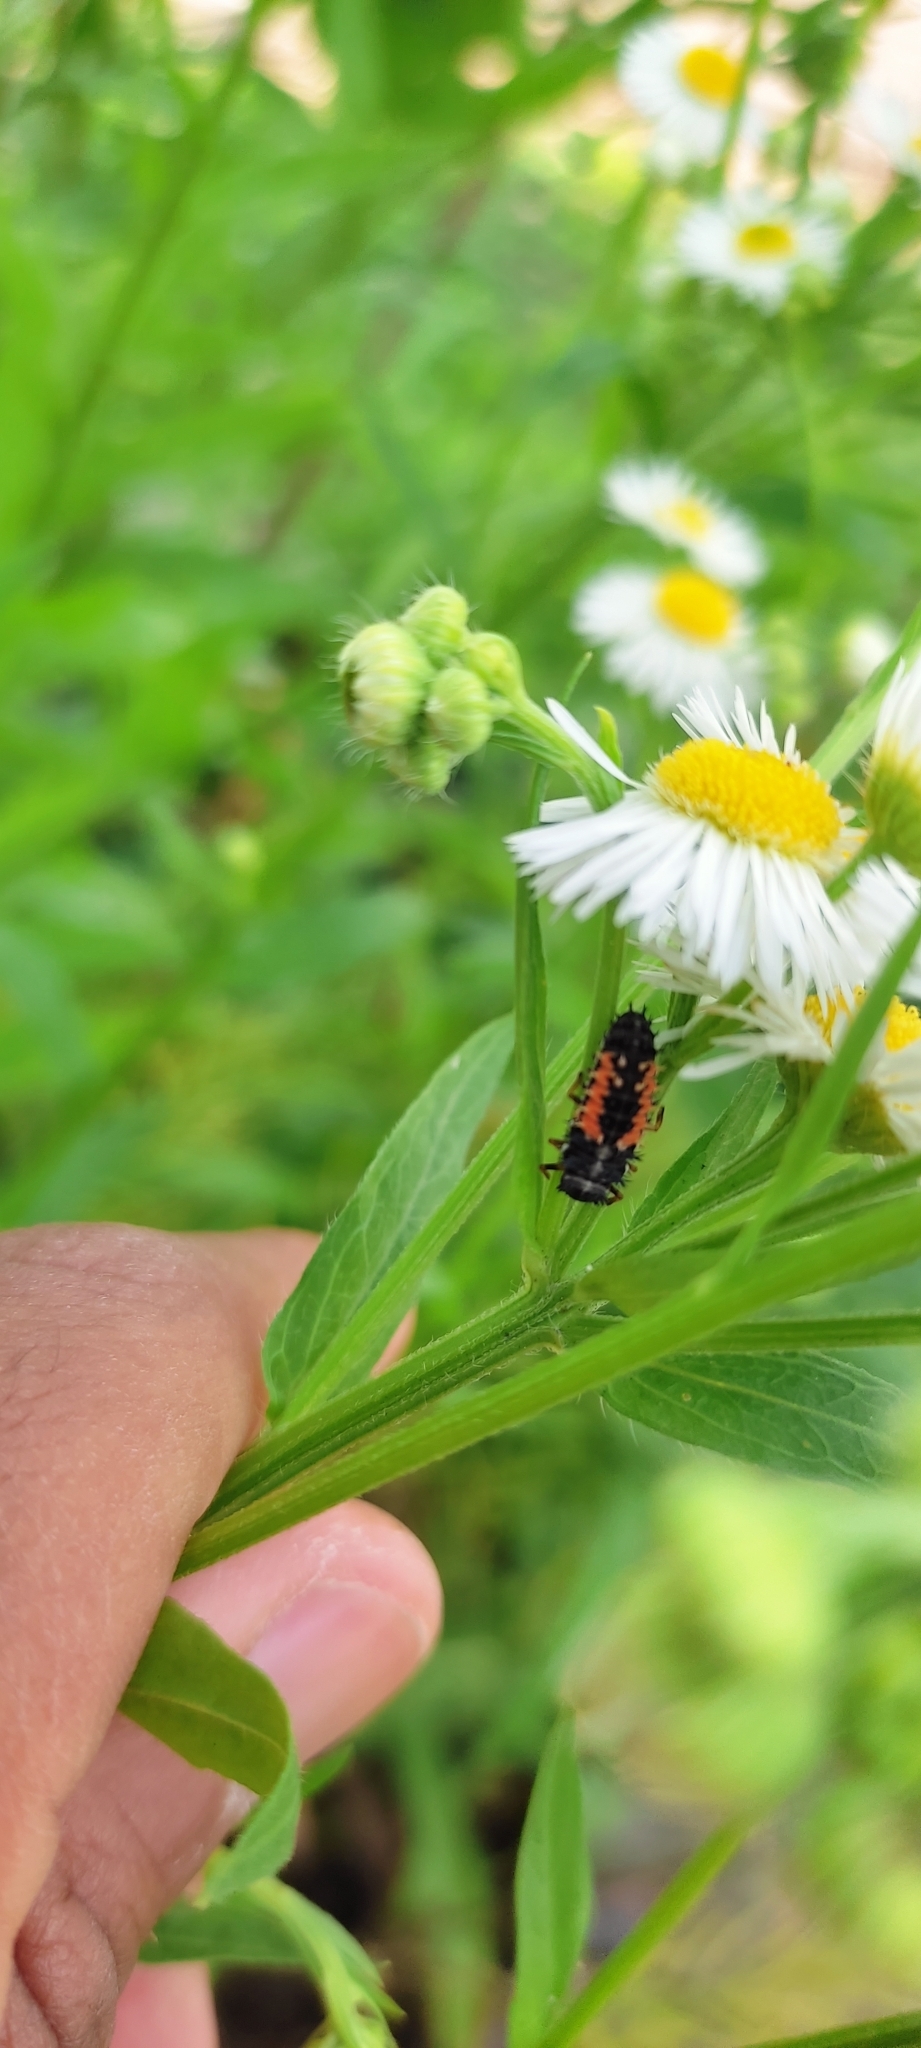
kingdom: Animalia
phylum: Arthropoda
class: Insecta
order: Coleoptera
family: Coccinellidae
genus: Harmonia
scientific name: Harmonia axyridis
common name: Harlequin ladybird
